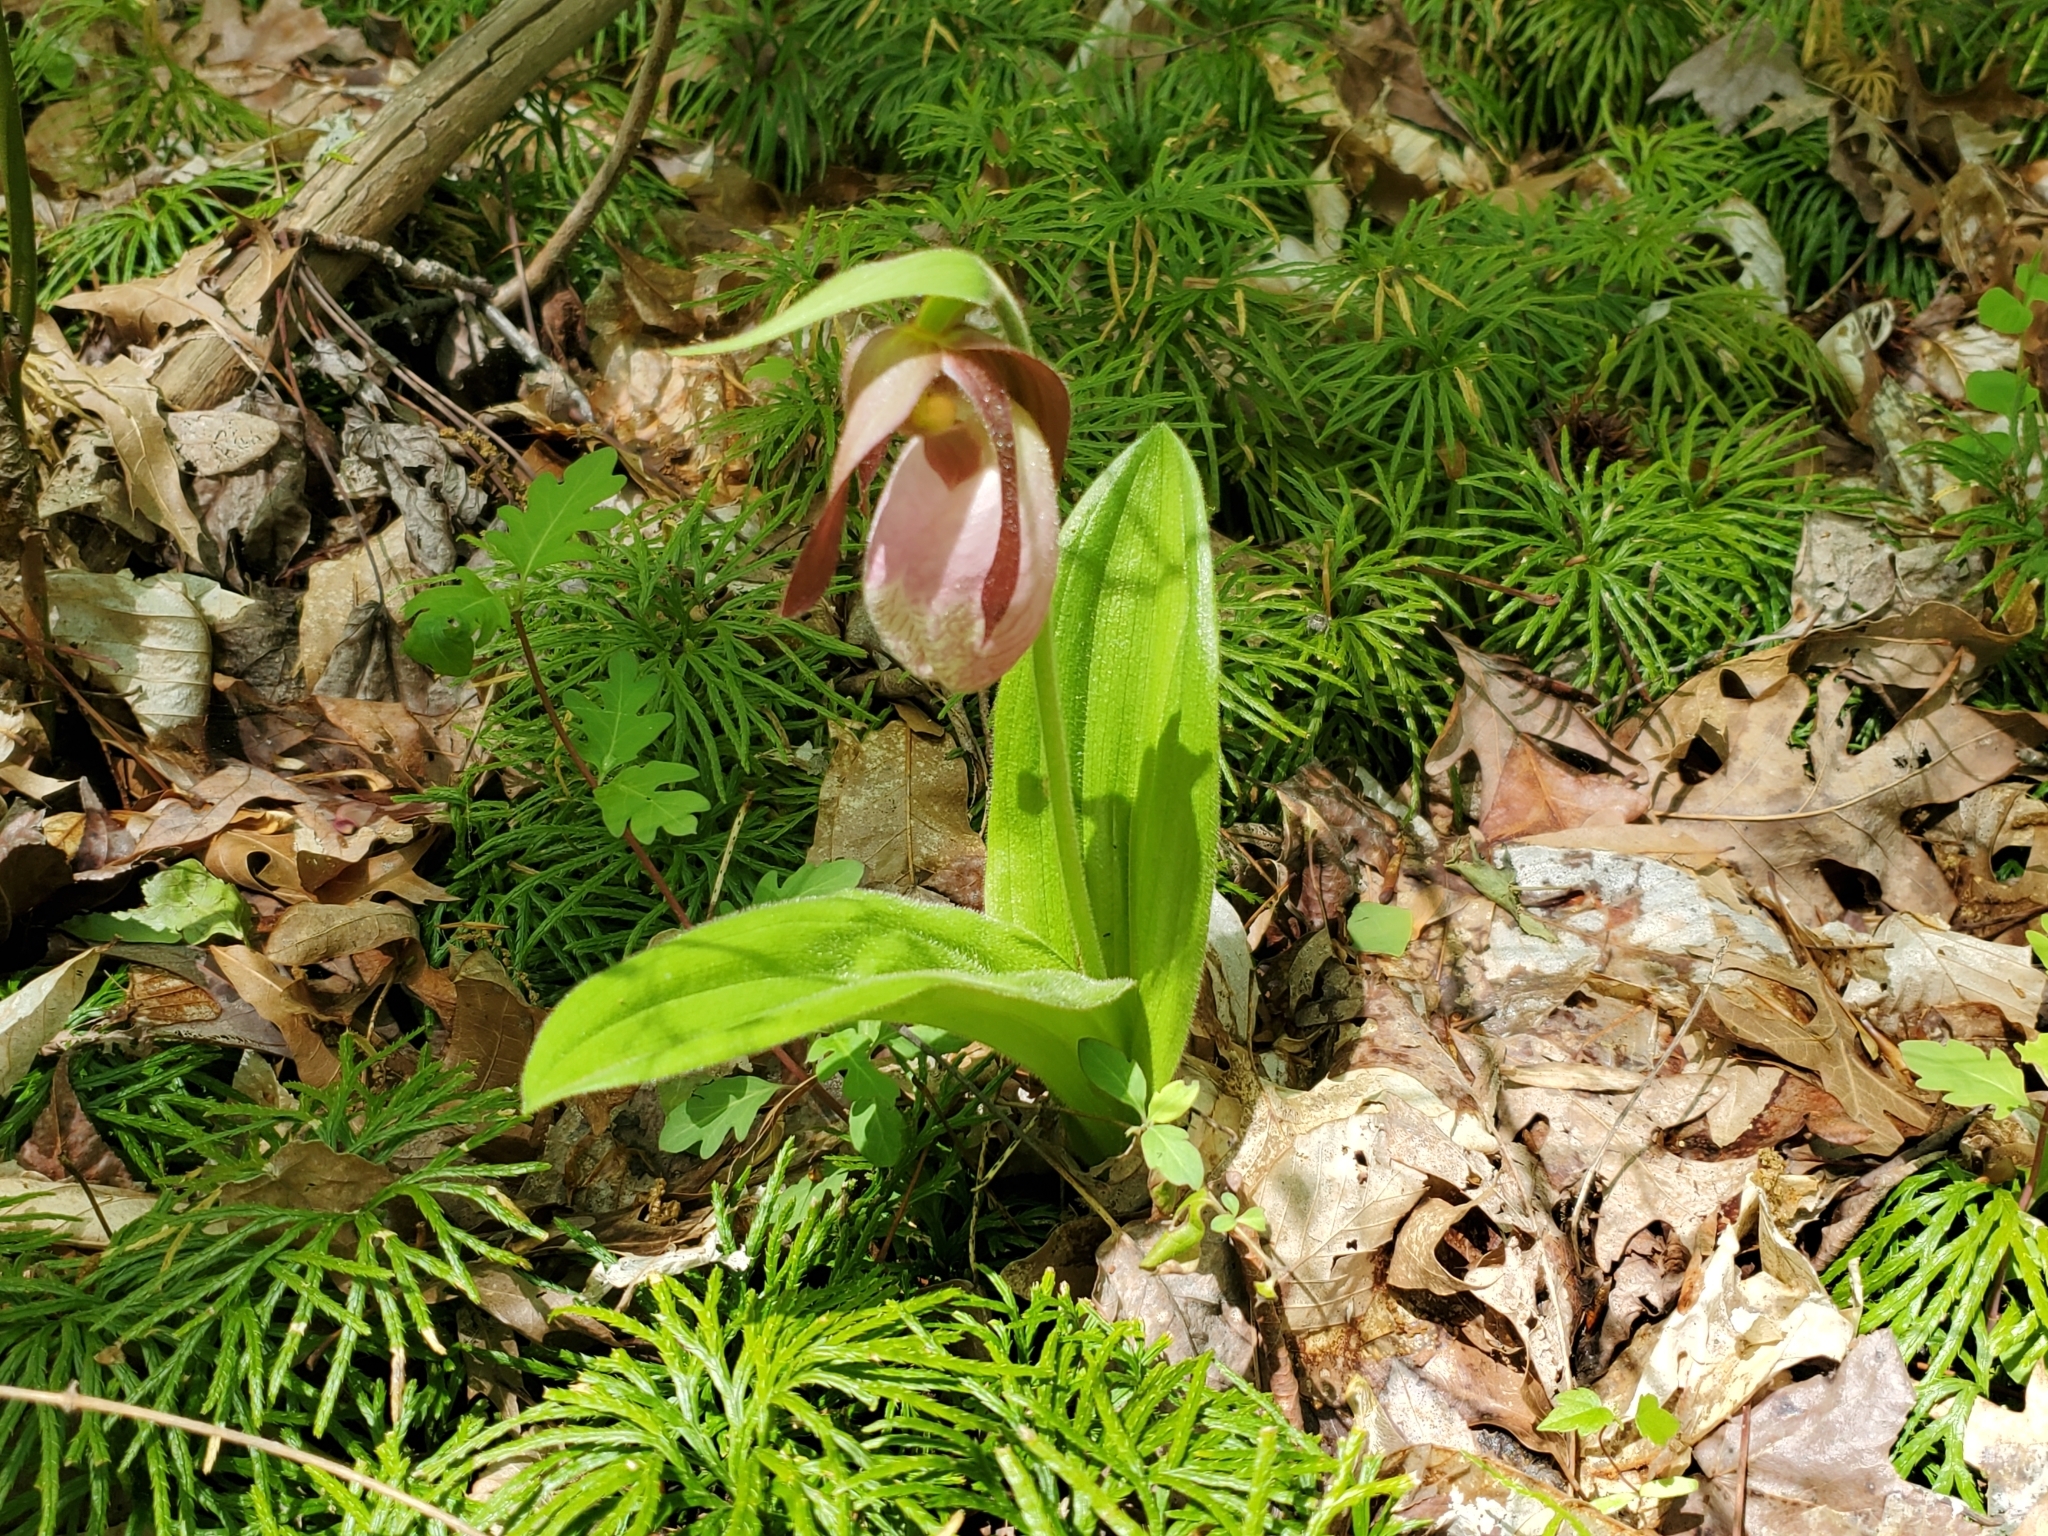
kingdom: Plantae
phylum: Tracheophyta
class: Liliopsida
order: Asparagales
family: Orchidaceae
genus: Cypripedium
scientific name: Cypripedium acaule
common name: Pink lady's-slipper
